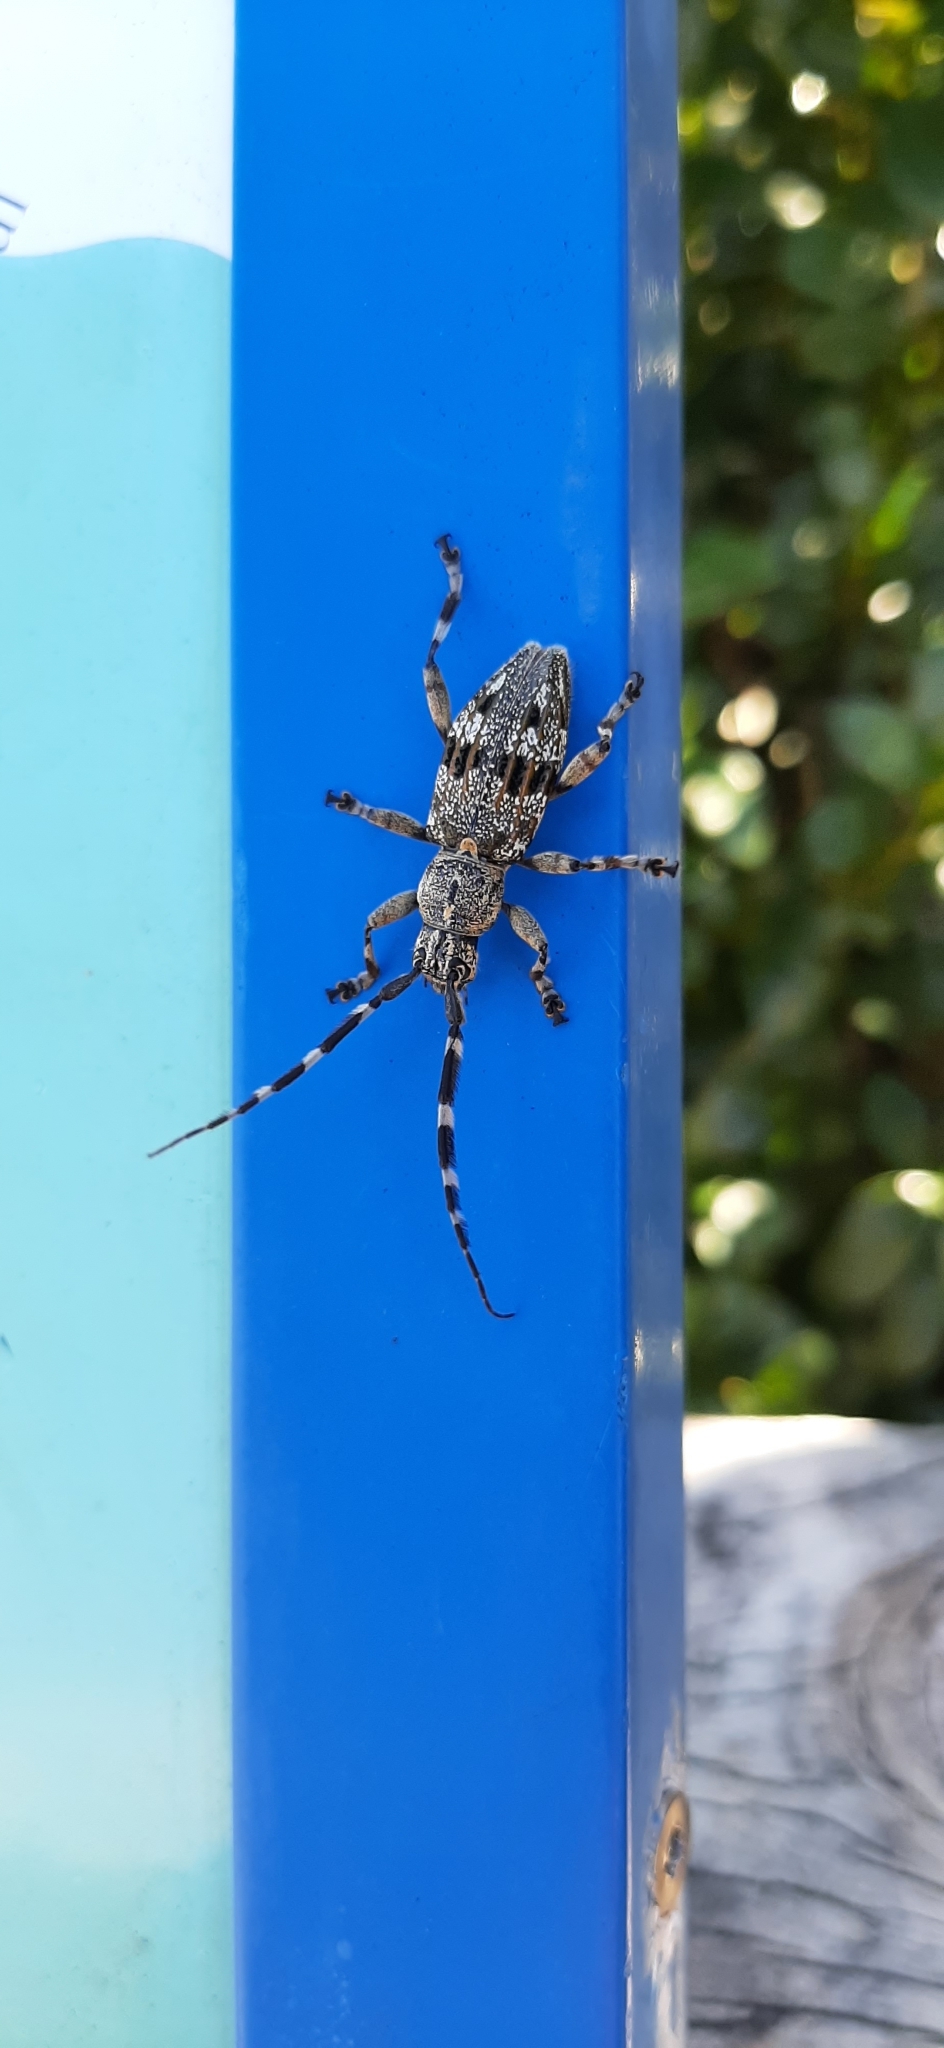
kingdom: Animalia
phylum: Arthropoda
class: Insecta
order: Coleoptera
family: Cerambycidae
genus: Hexatricha
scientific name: Hexatricha pulverulenta
